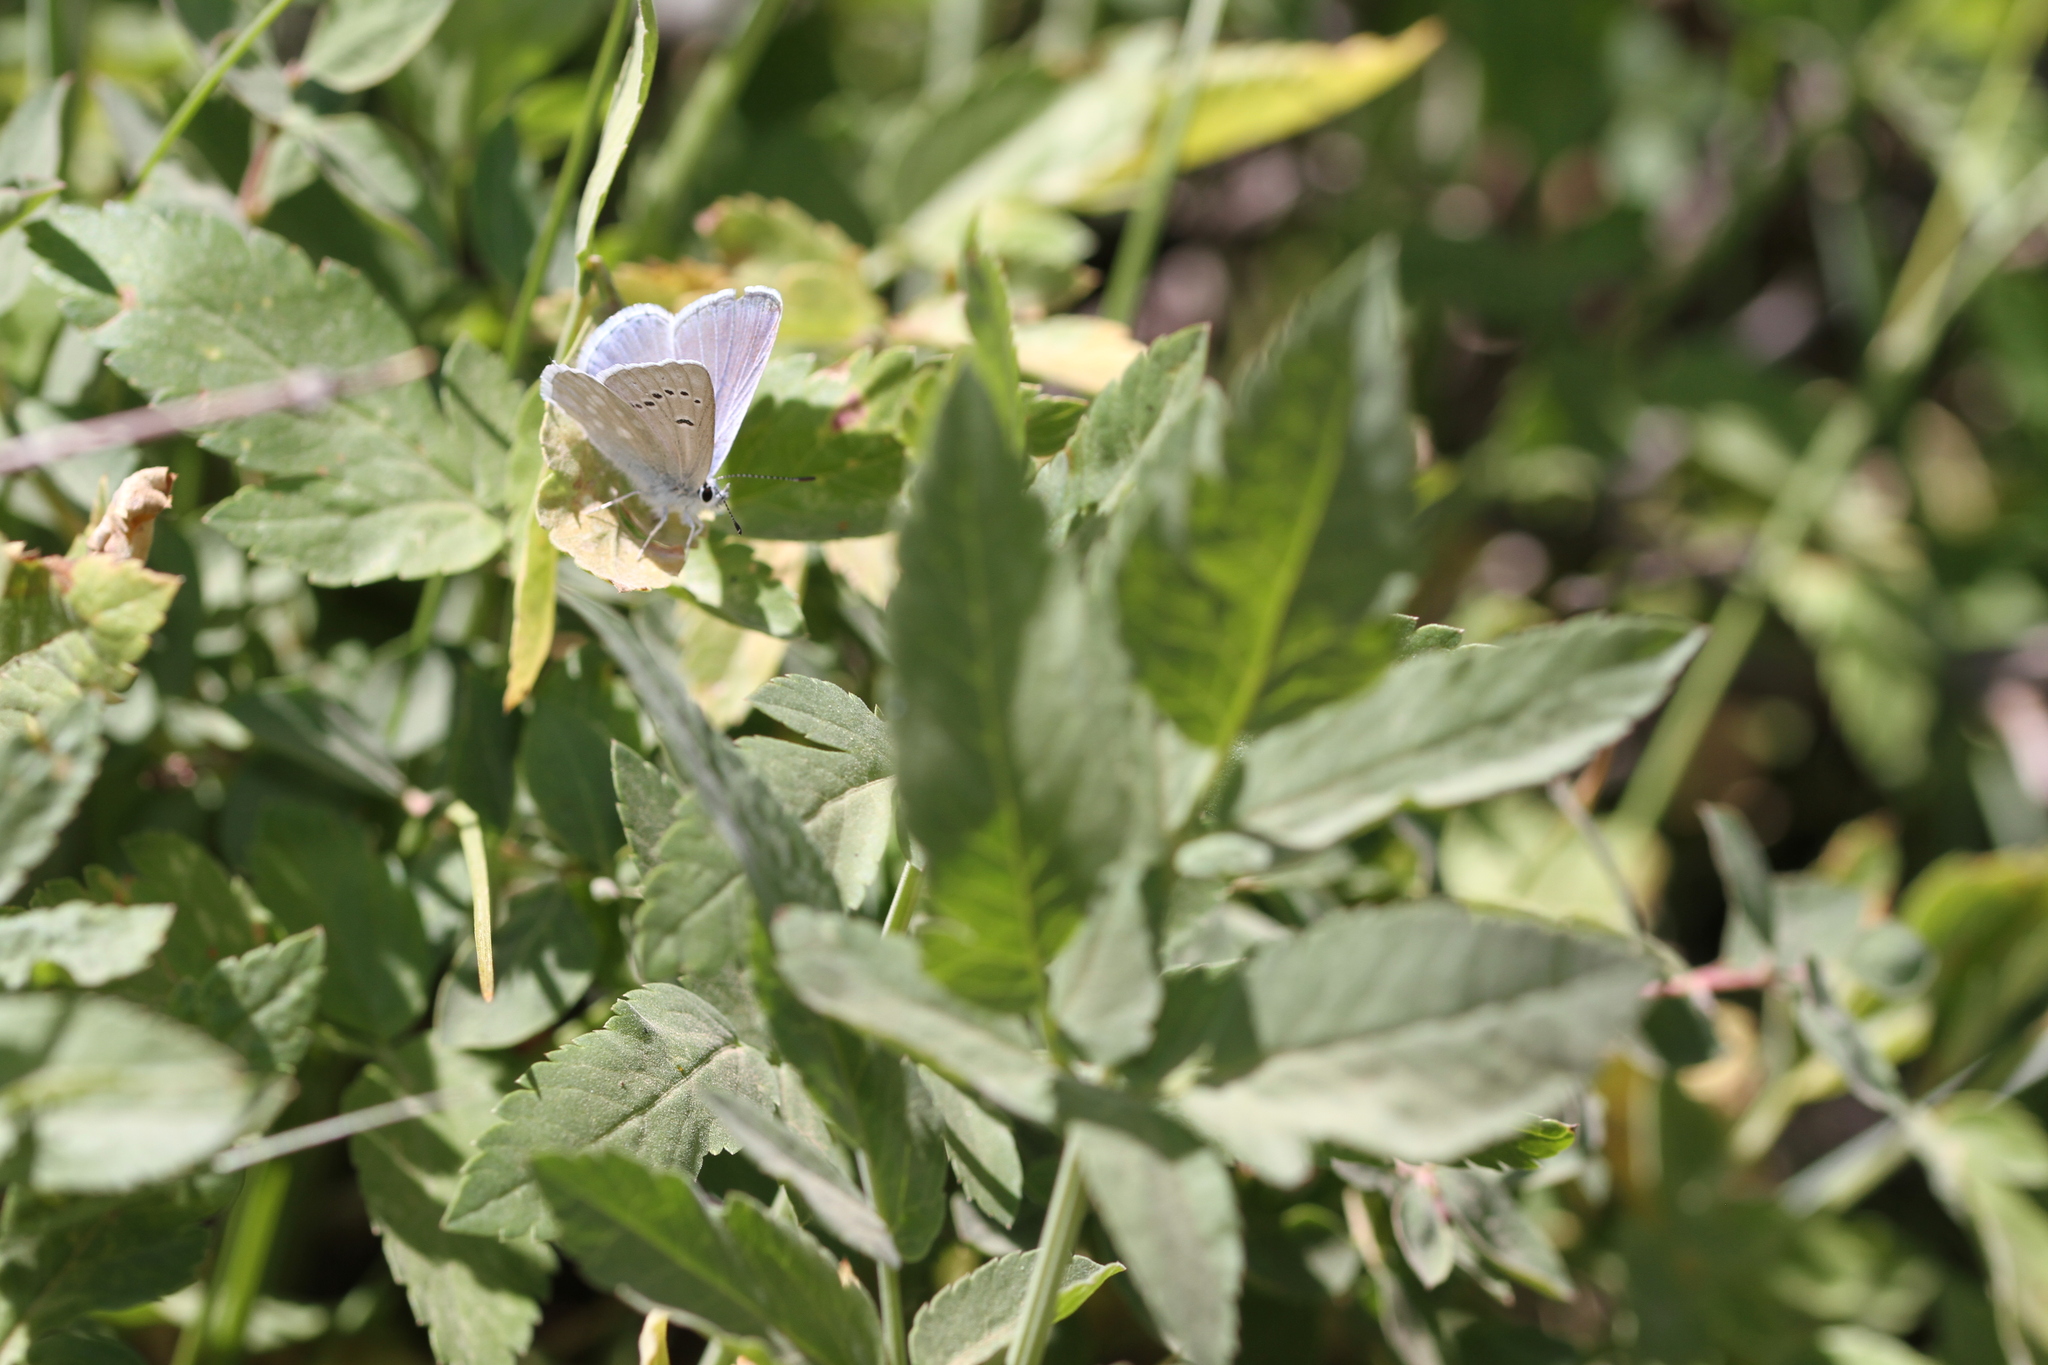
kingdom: Animalia
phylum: Arthropoda
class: Insecta
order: Lepidoptera
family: Lycaenidae
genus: Icaricia
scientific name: Icaricia icarioides
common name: Boisduval's blue
